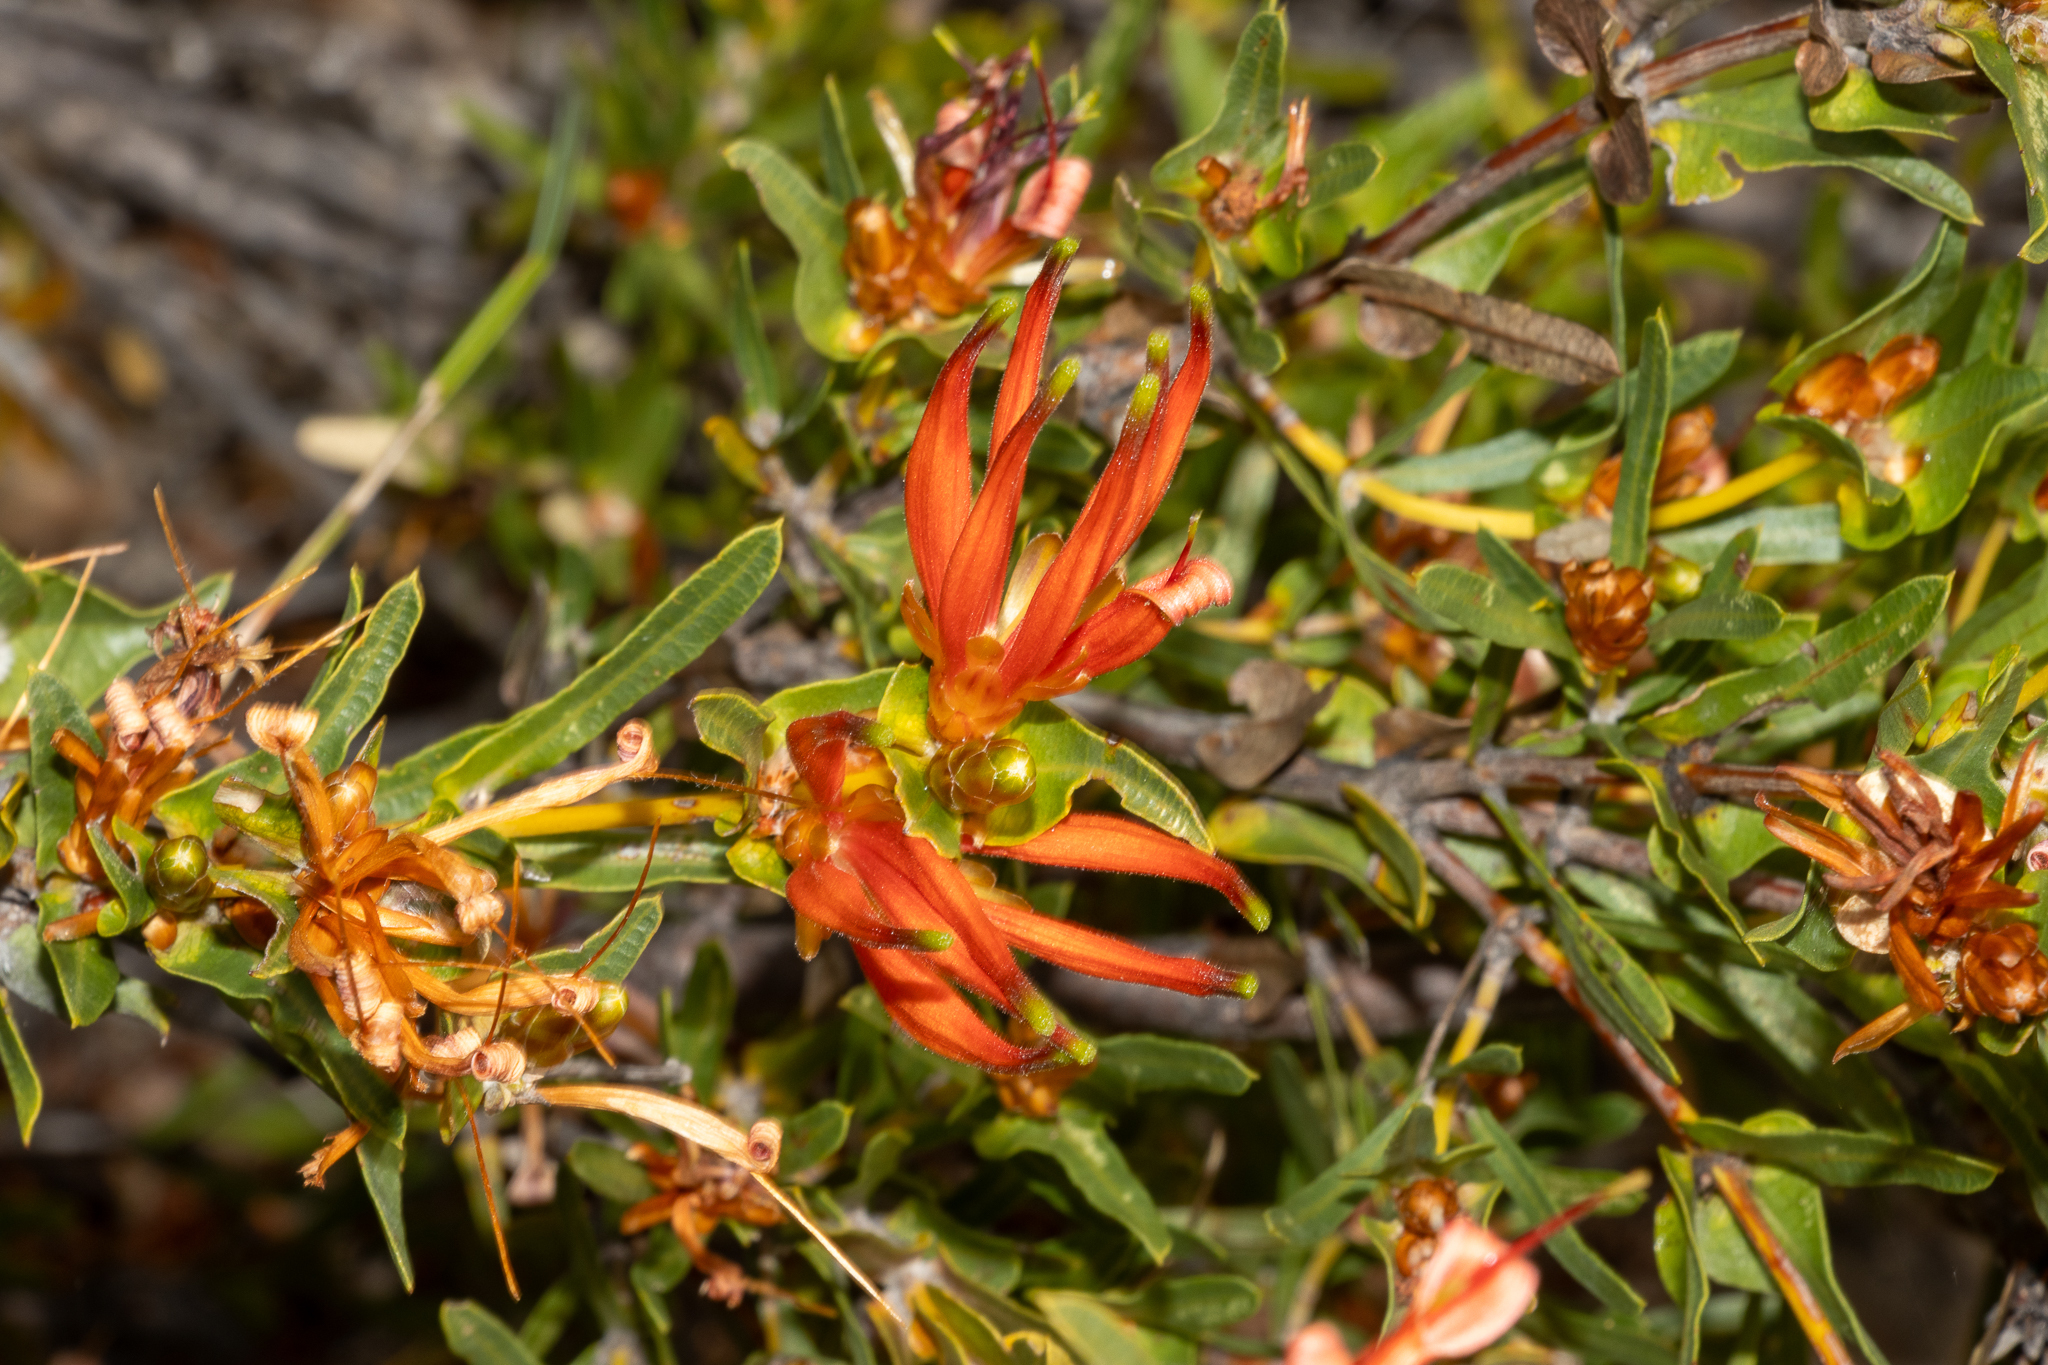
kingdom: Plantae
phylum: Tracheophyta
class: Magnoliopsida
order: Proteales
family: Proteaceae
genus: Lambertia
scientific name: Lambertia multiflora
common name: Many-flowered honeysuckle
